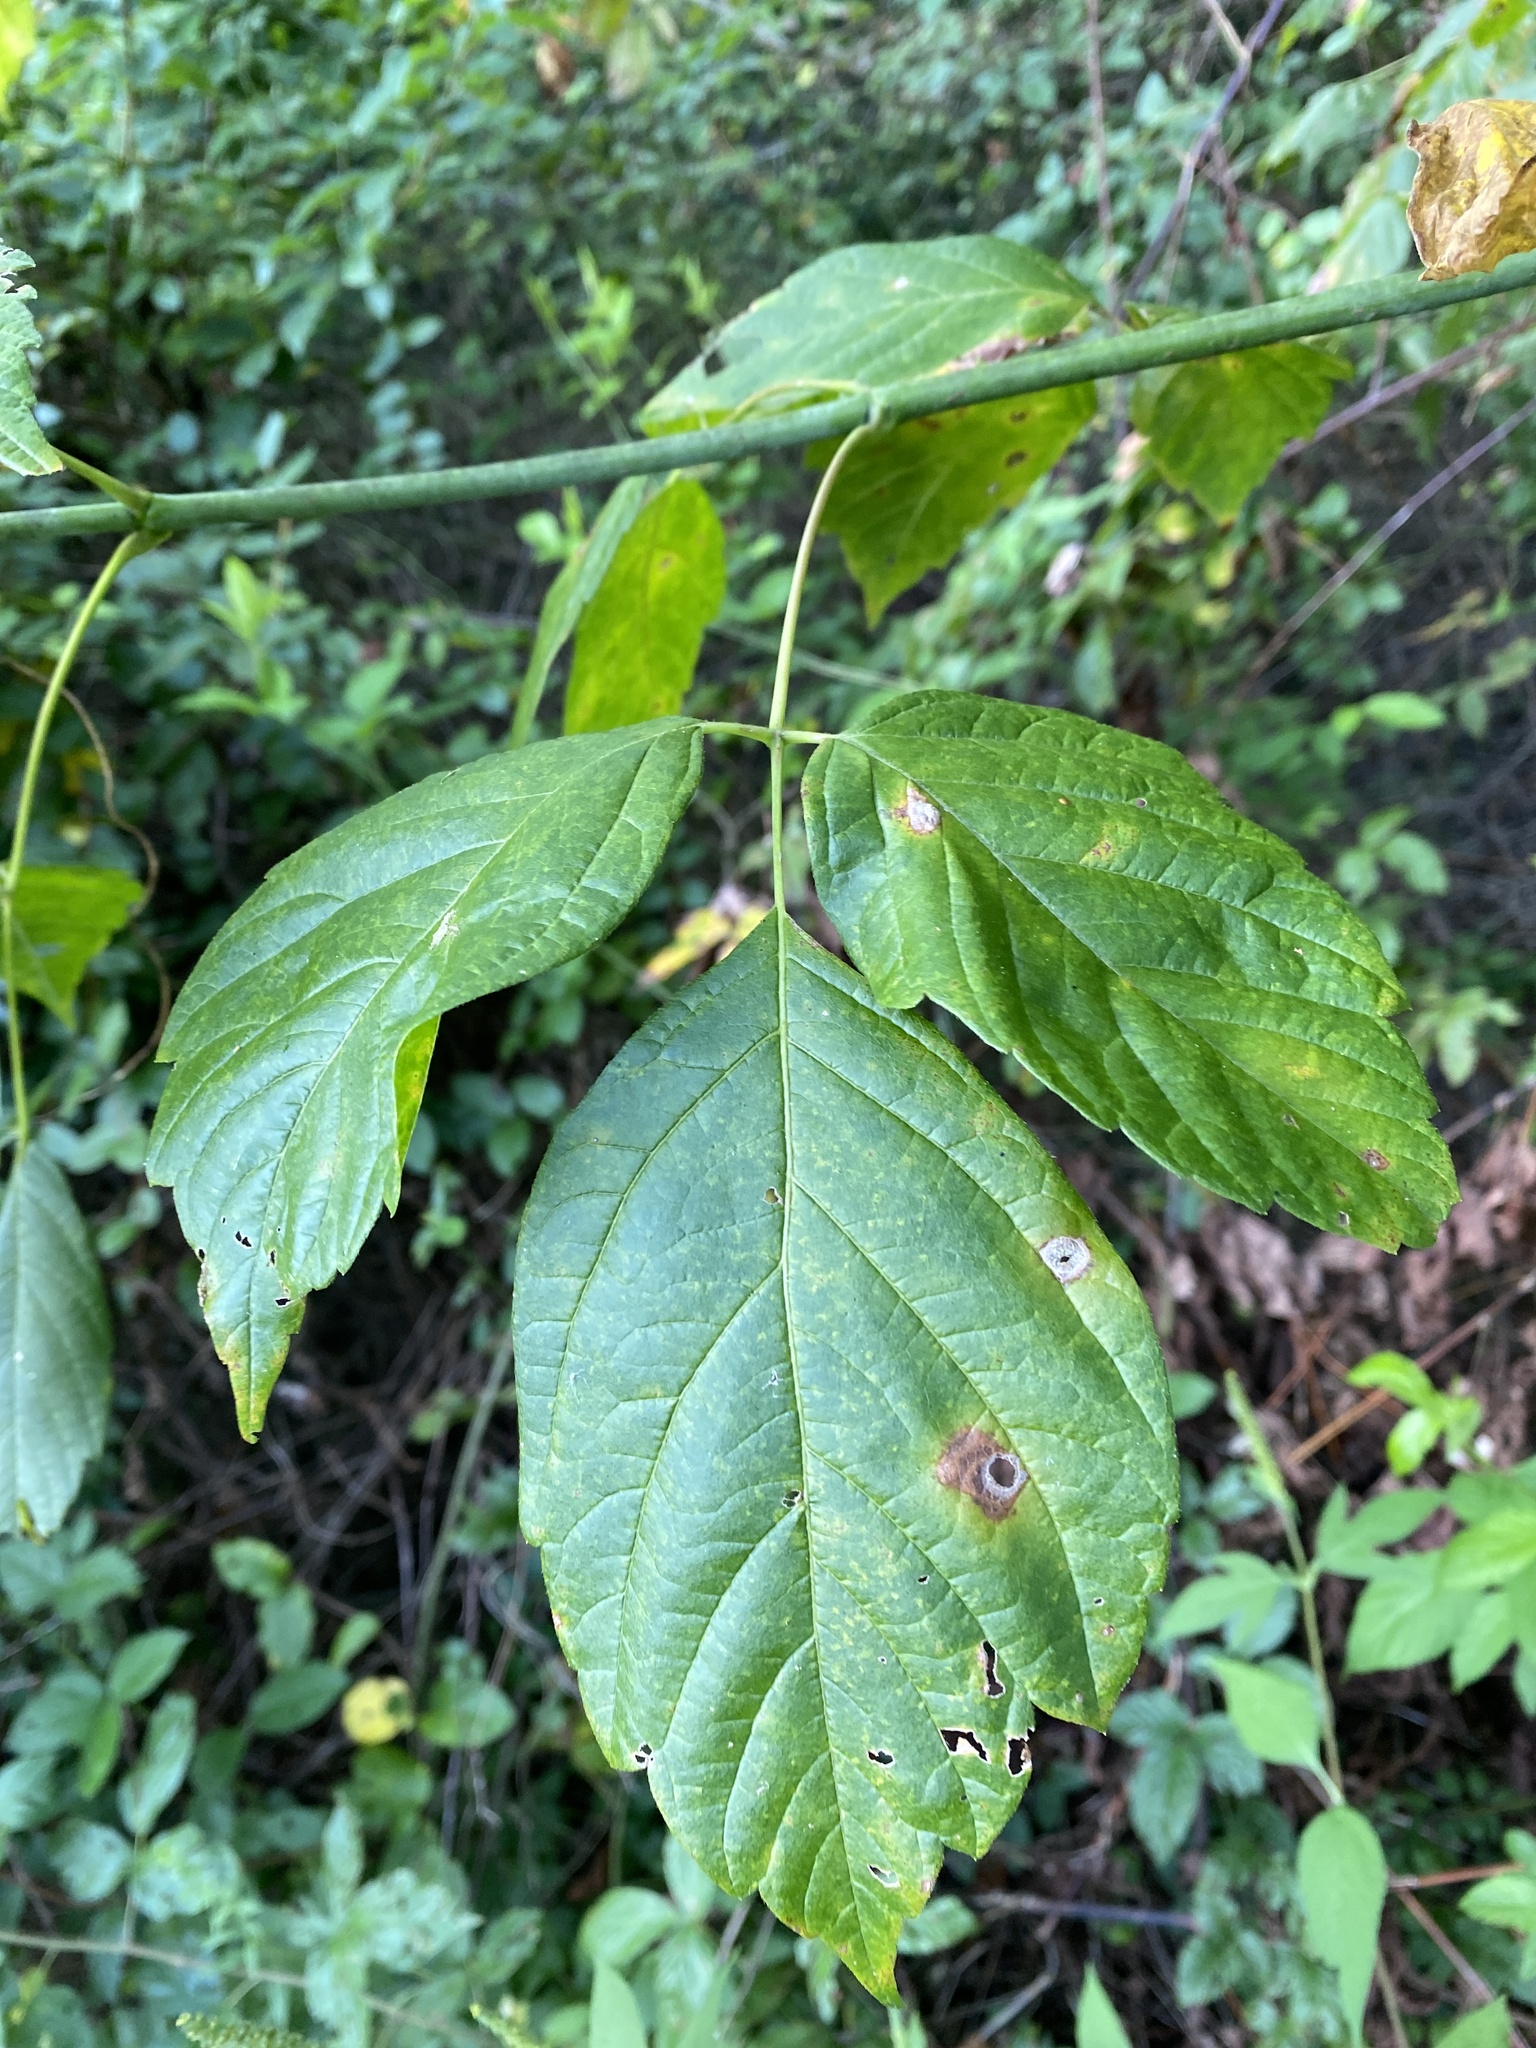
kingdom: Plantae
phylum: Tracheophyta
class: Magnoliopsida
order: Sapindales
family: Sapindaceae
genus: Acer
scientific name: Acer negundo
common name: Ashleaf maple
